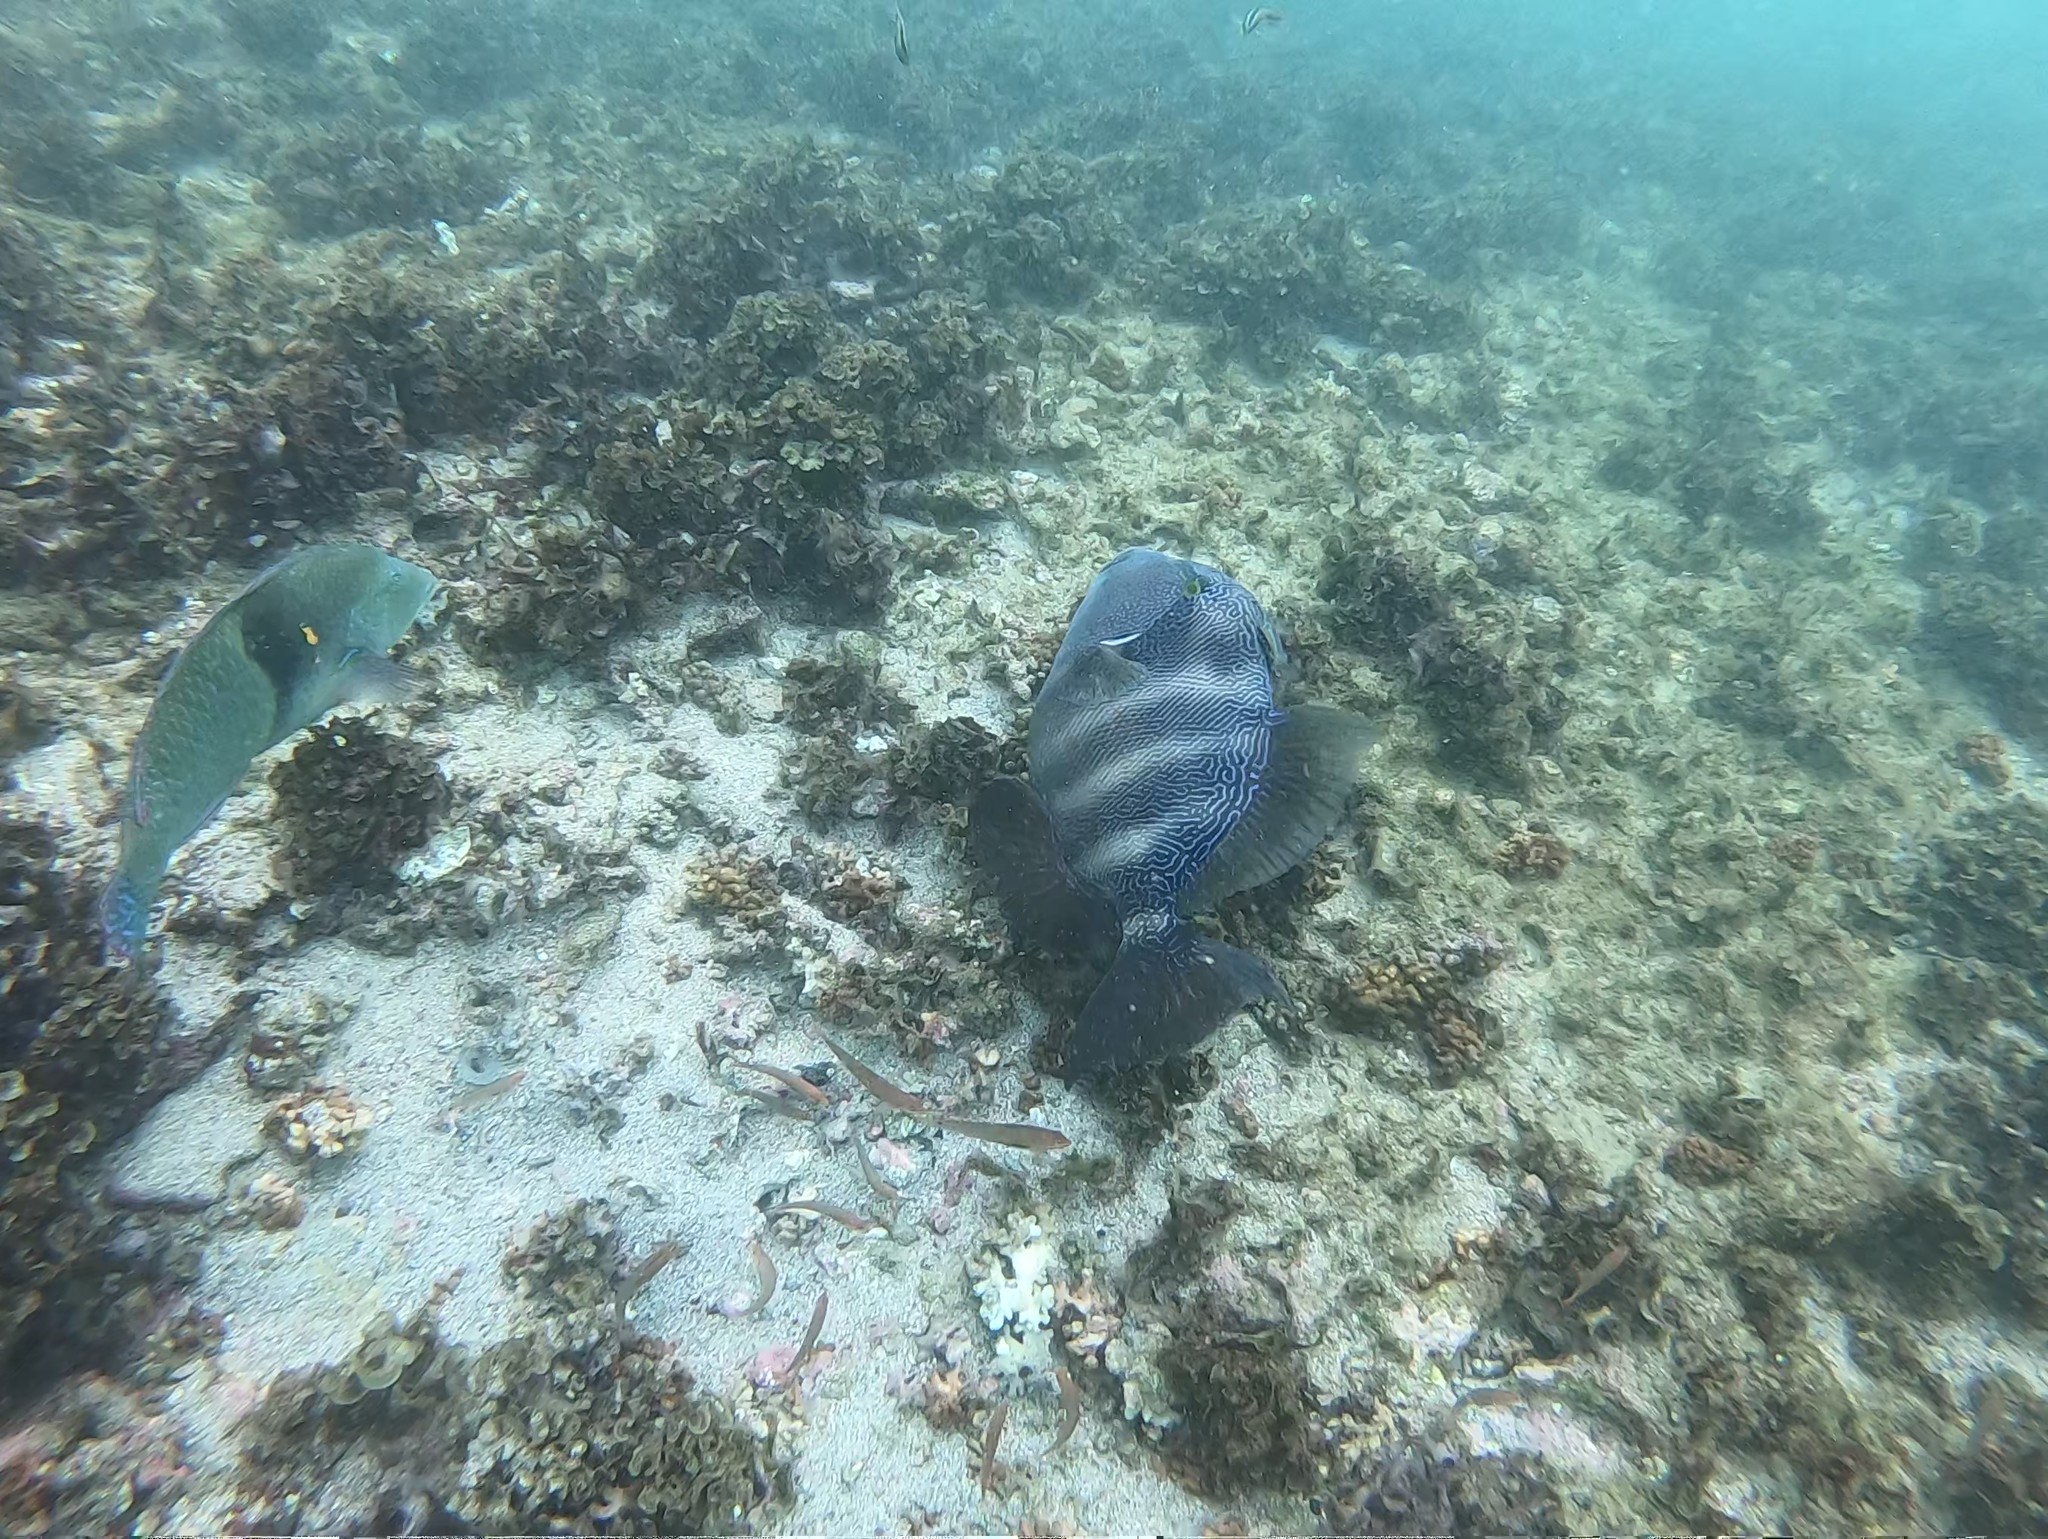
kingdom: Animalia
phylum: Chordata
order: Tetraodontiformes
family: Balistidae
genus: Pseudobalistes
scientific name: Pseudobalistes naufragium
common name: Blunthead triggerfish
